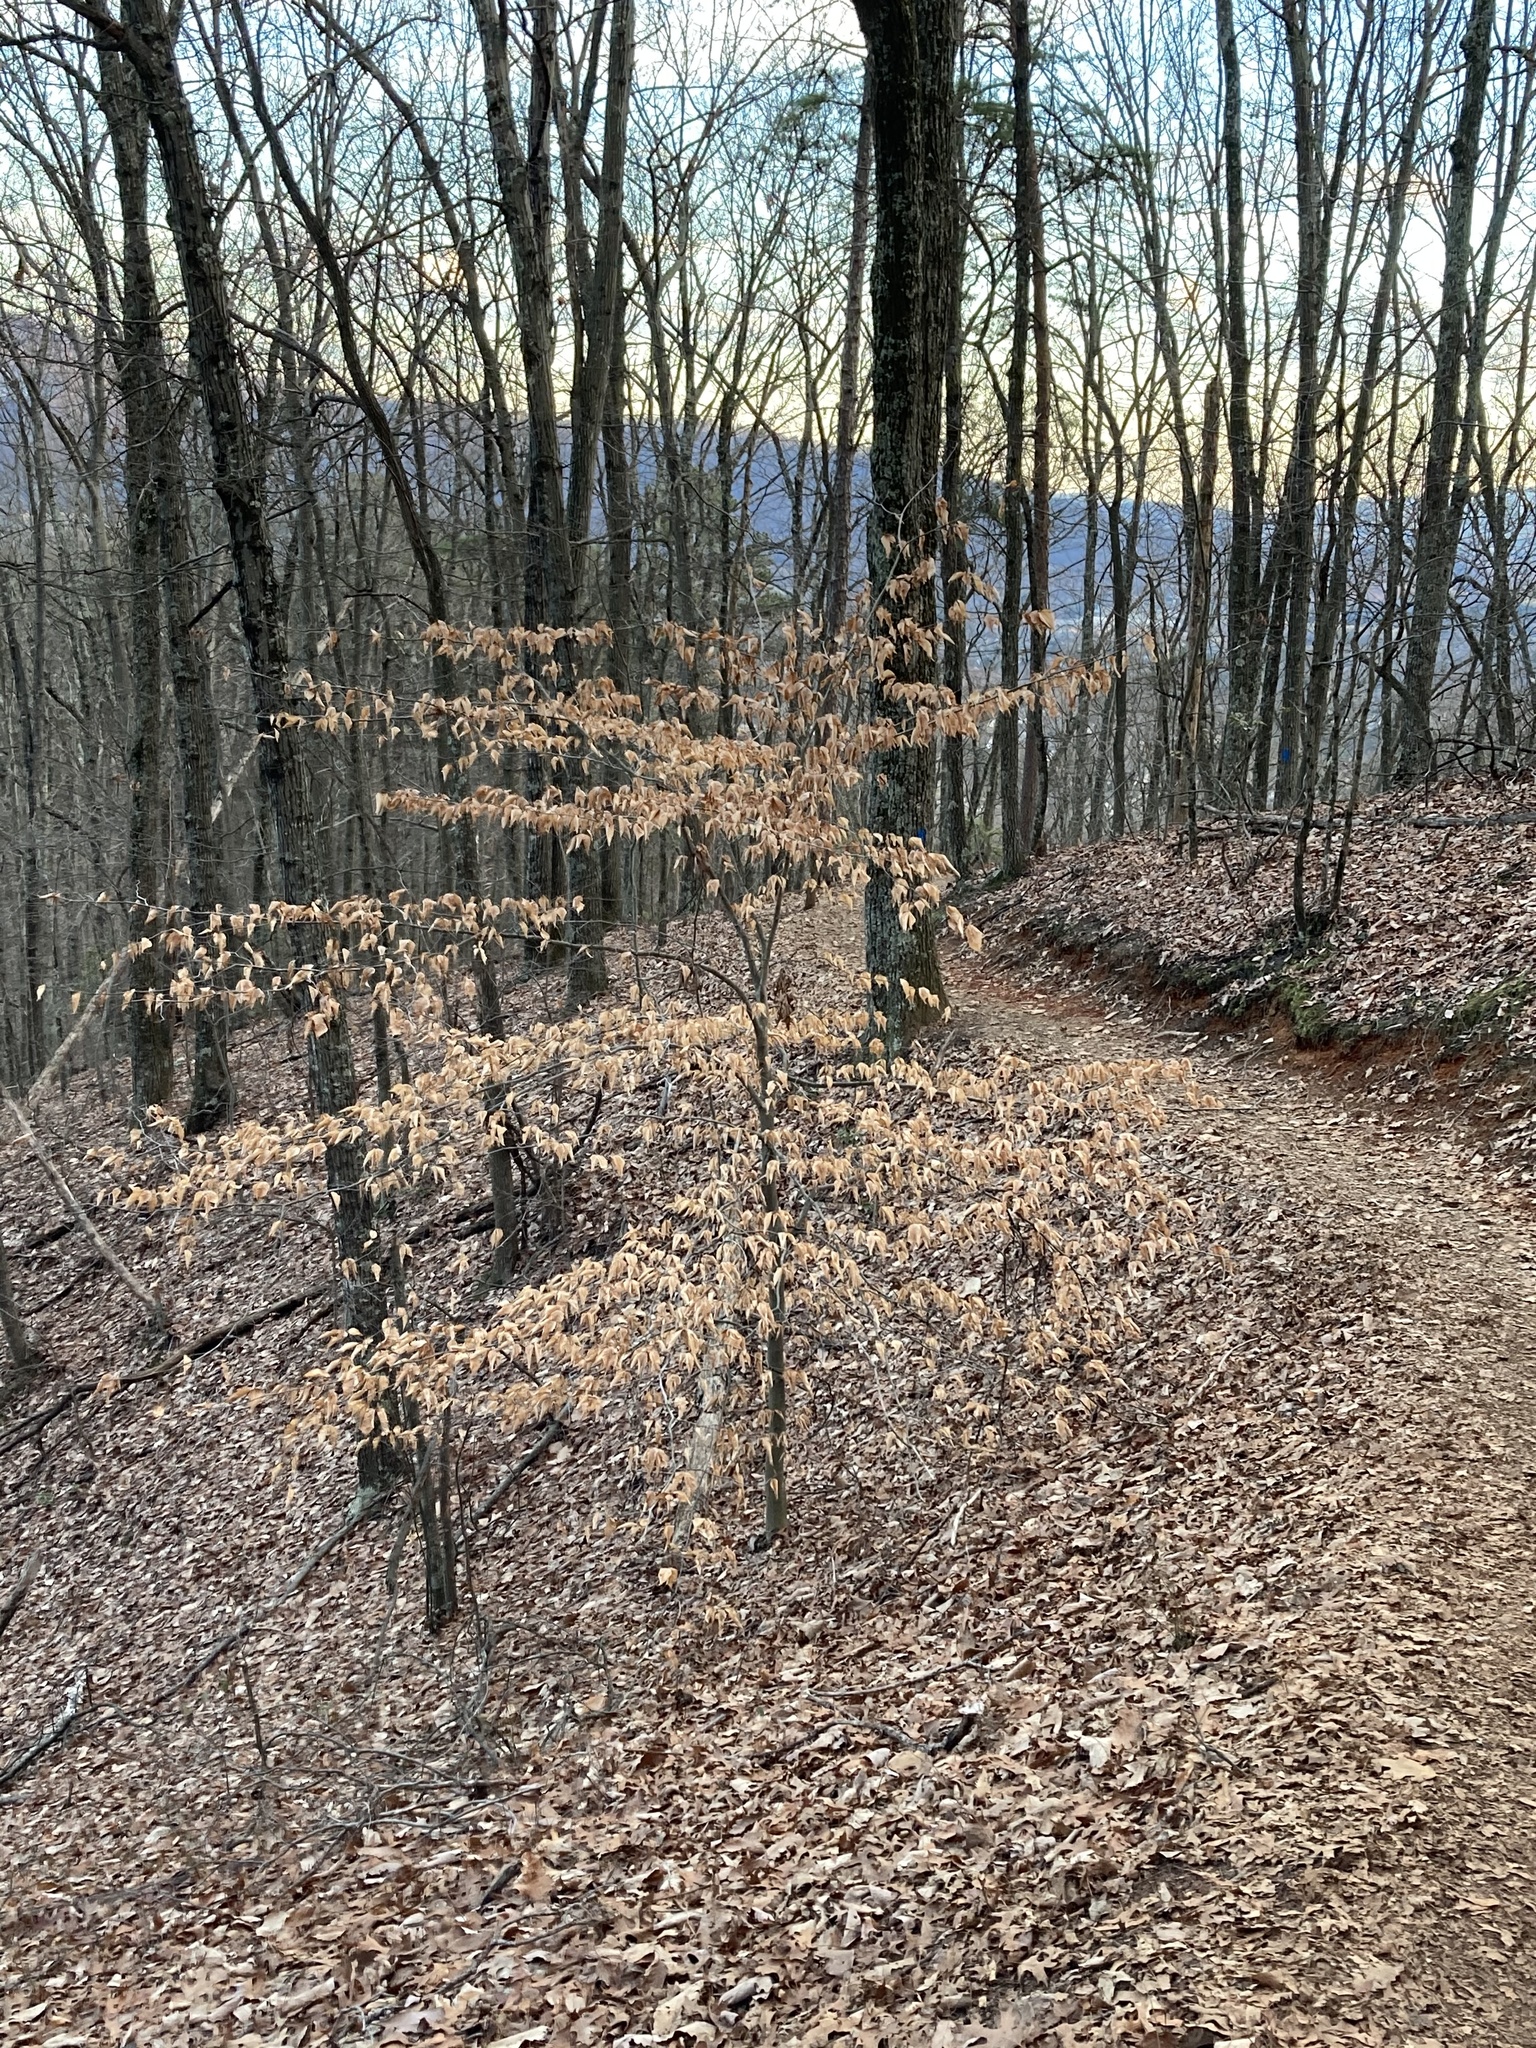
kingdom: Plantae
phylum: Tracheophyta
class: Magnoliopsida
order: Fagales
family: Fagaceae
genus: Fagus
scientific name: Fagus grandifolia
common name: American beech
